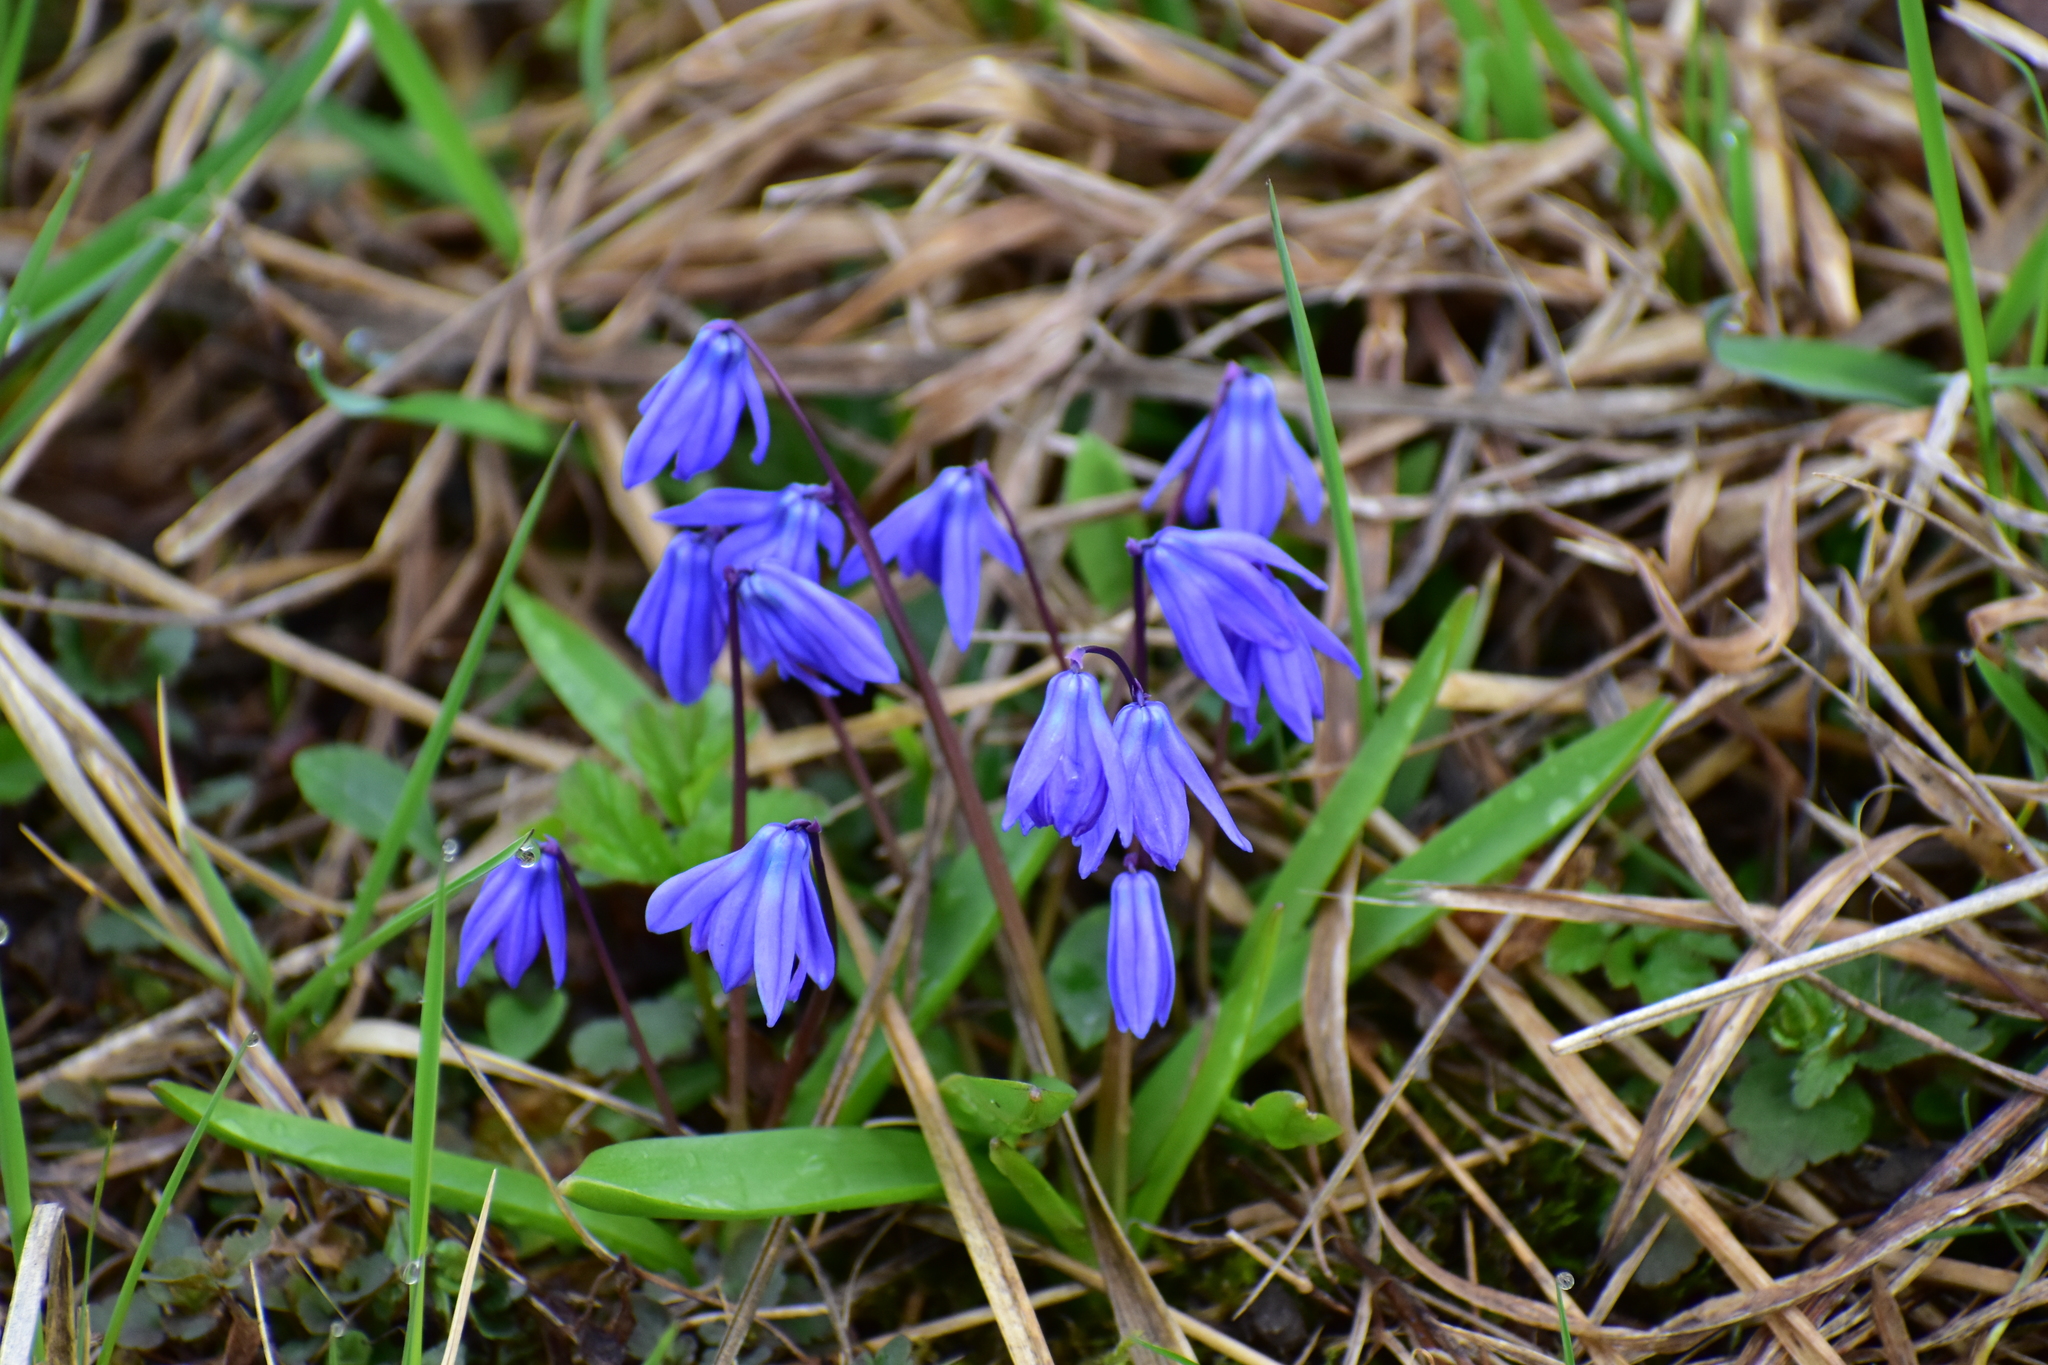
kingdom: Plantae
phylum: Tracheophyta
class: Liliopsida
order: Asparagales
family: Asparagaceae
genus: Scilla
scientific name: Scilla siberica
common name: Siberian squill
